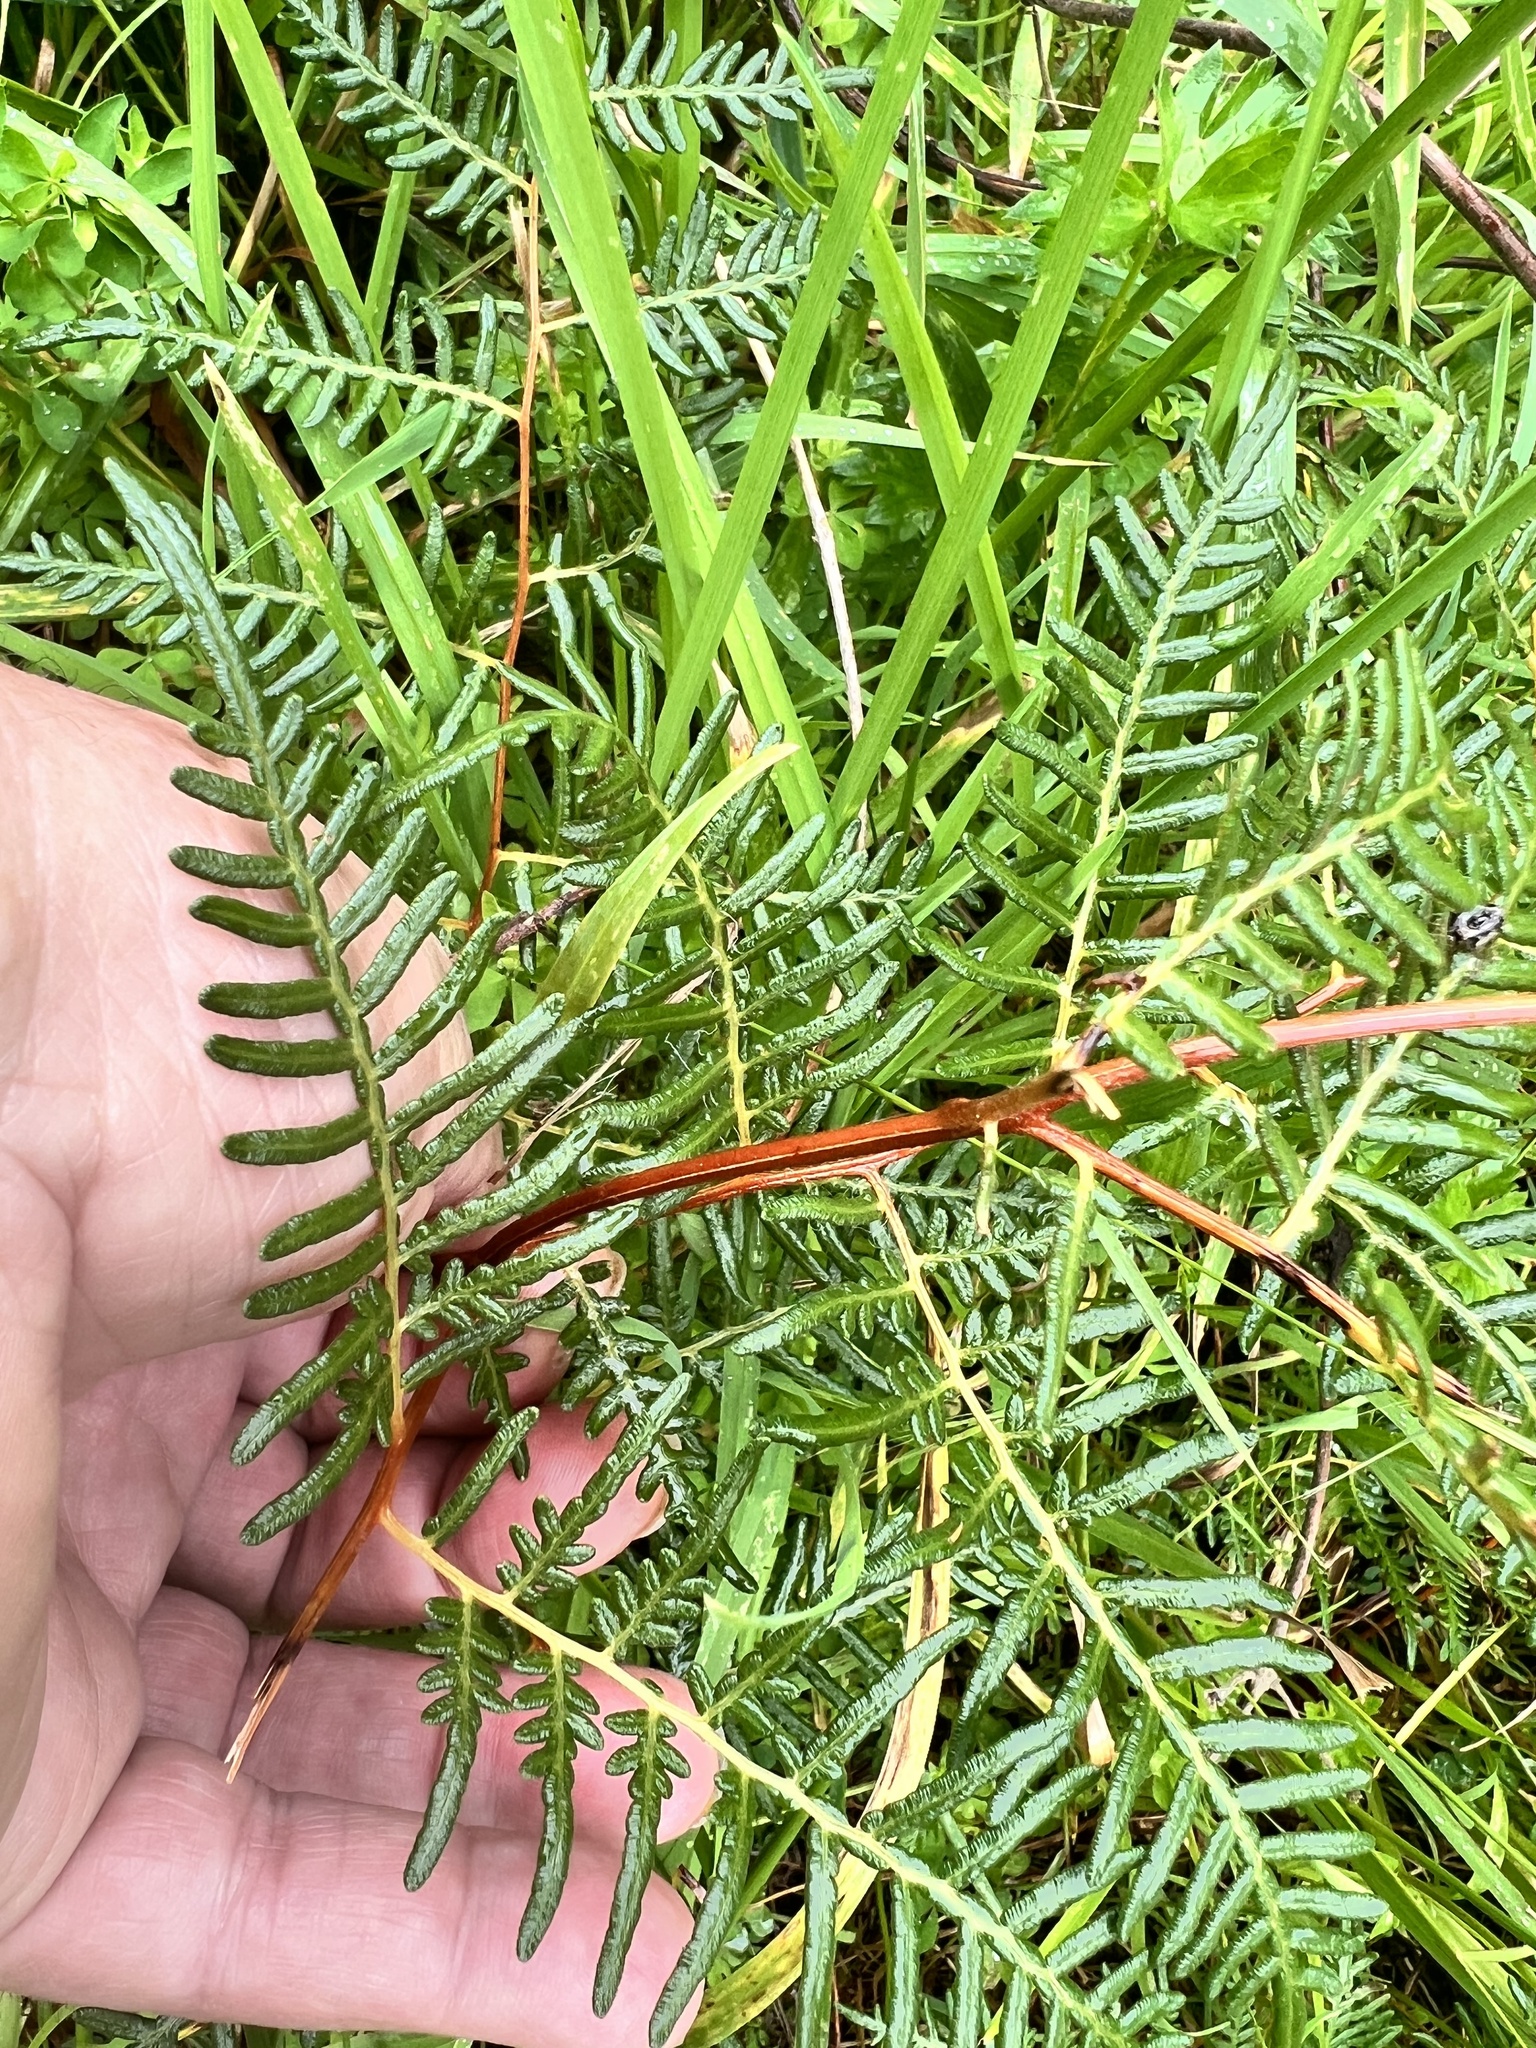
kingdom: Plantae
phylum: Tracheophyta
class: Polypodiopsida
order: Polypodiales
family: Dennstaedtiaceae
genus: Pteridium
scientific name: Pteridium esculentum
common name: Bracken fern
